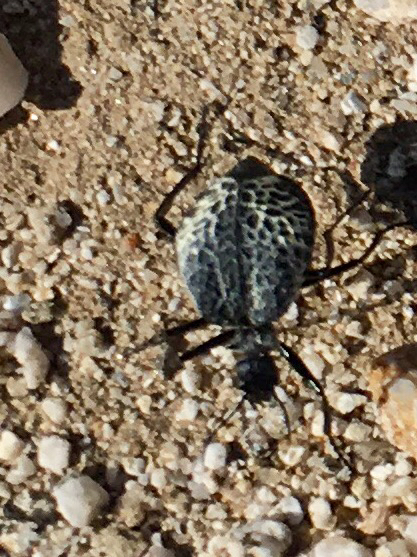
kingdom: Animalia
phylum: Arthropoda
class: Insecta
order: Coleoptera
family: Meloidae
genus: Cysteodemus
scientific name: Cysteodemus armatus
